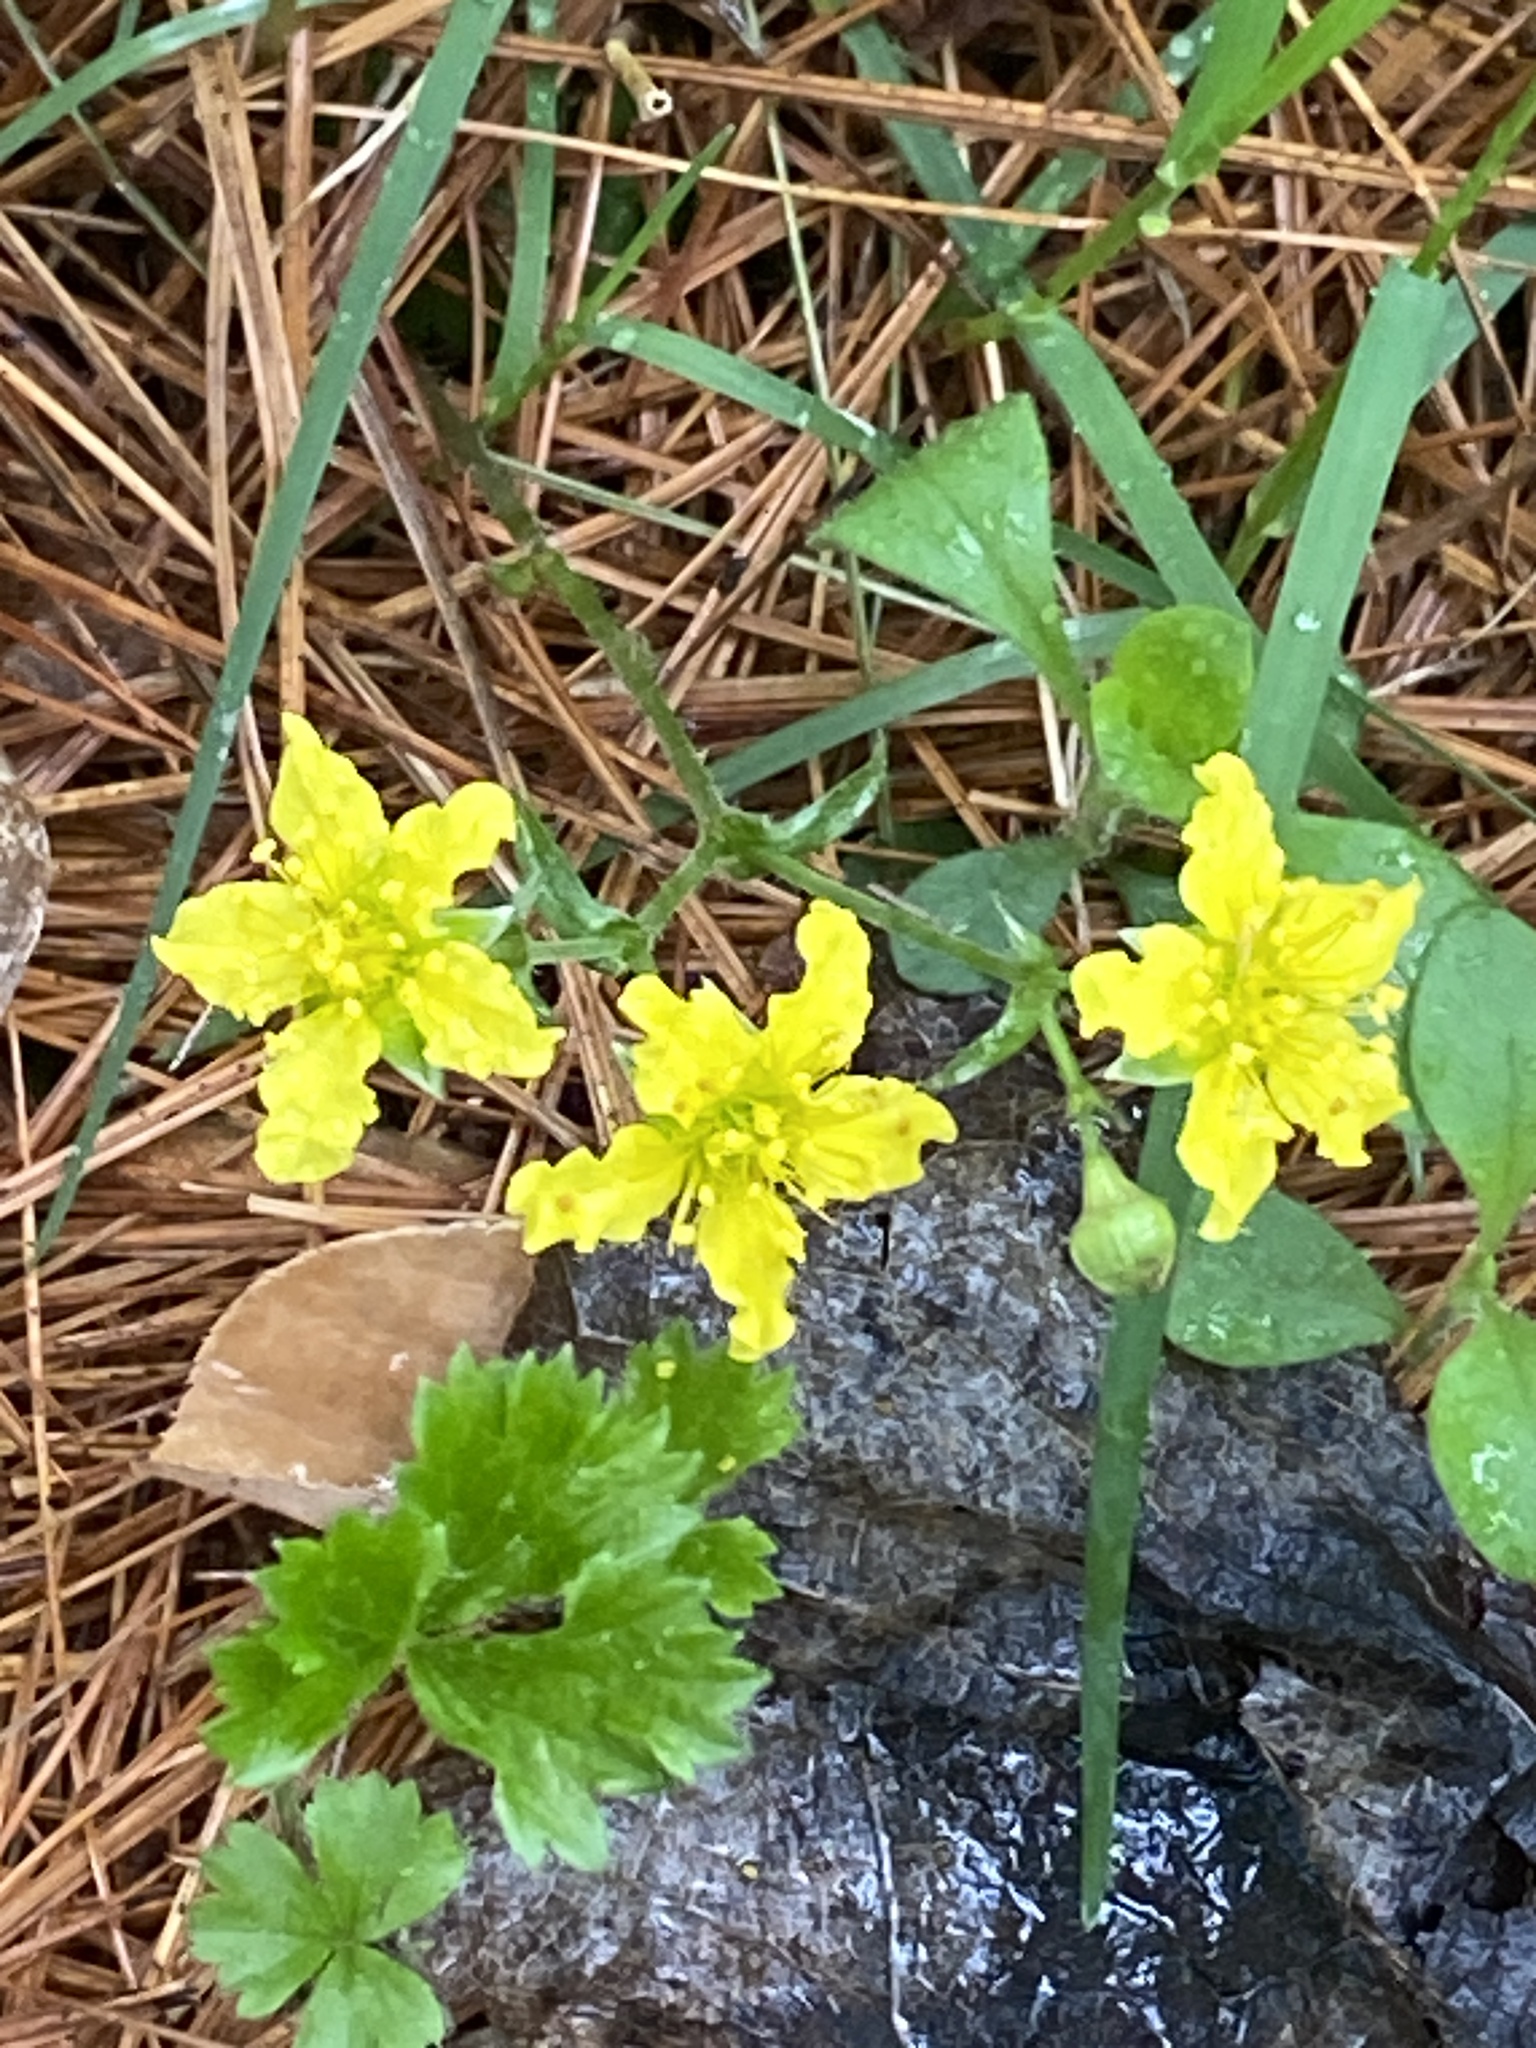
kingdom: Plantae
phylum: Tracheophyta
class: Magnoliopsida
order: Rosales
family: Rosaceae
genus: Geum
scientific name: Geum fragarioides
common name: Appalachian barren strawberry
